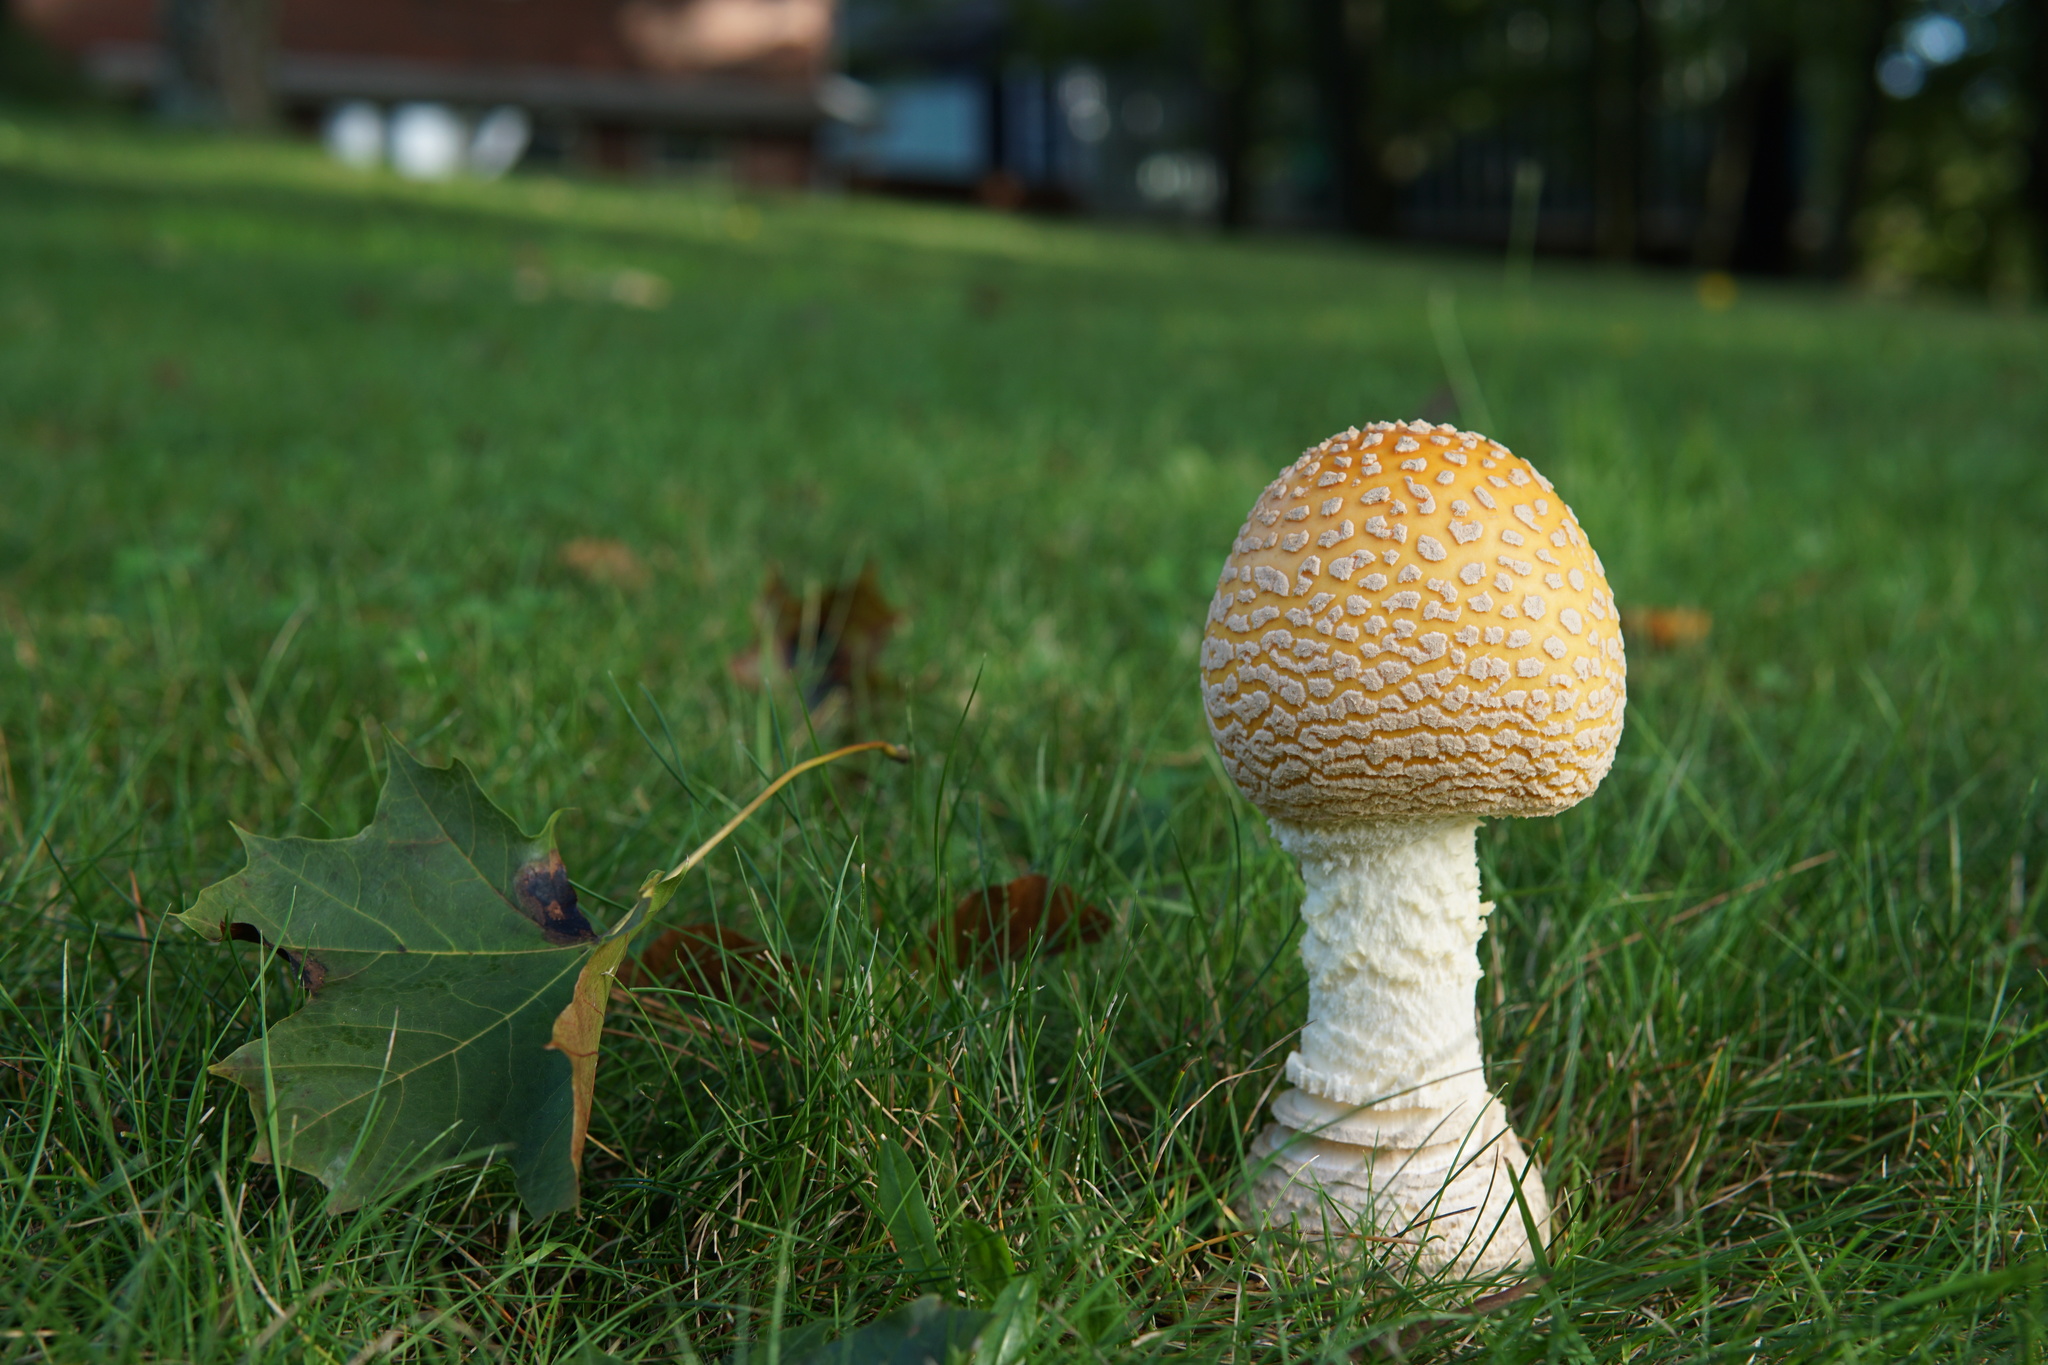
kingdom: Fungi
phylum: Basidiomycota
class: Agaricomycetes
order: Agaricales
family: Amanitaceae
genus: Amanita
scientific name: Amanita muscaria
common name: Fly agaric
